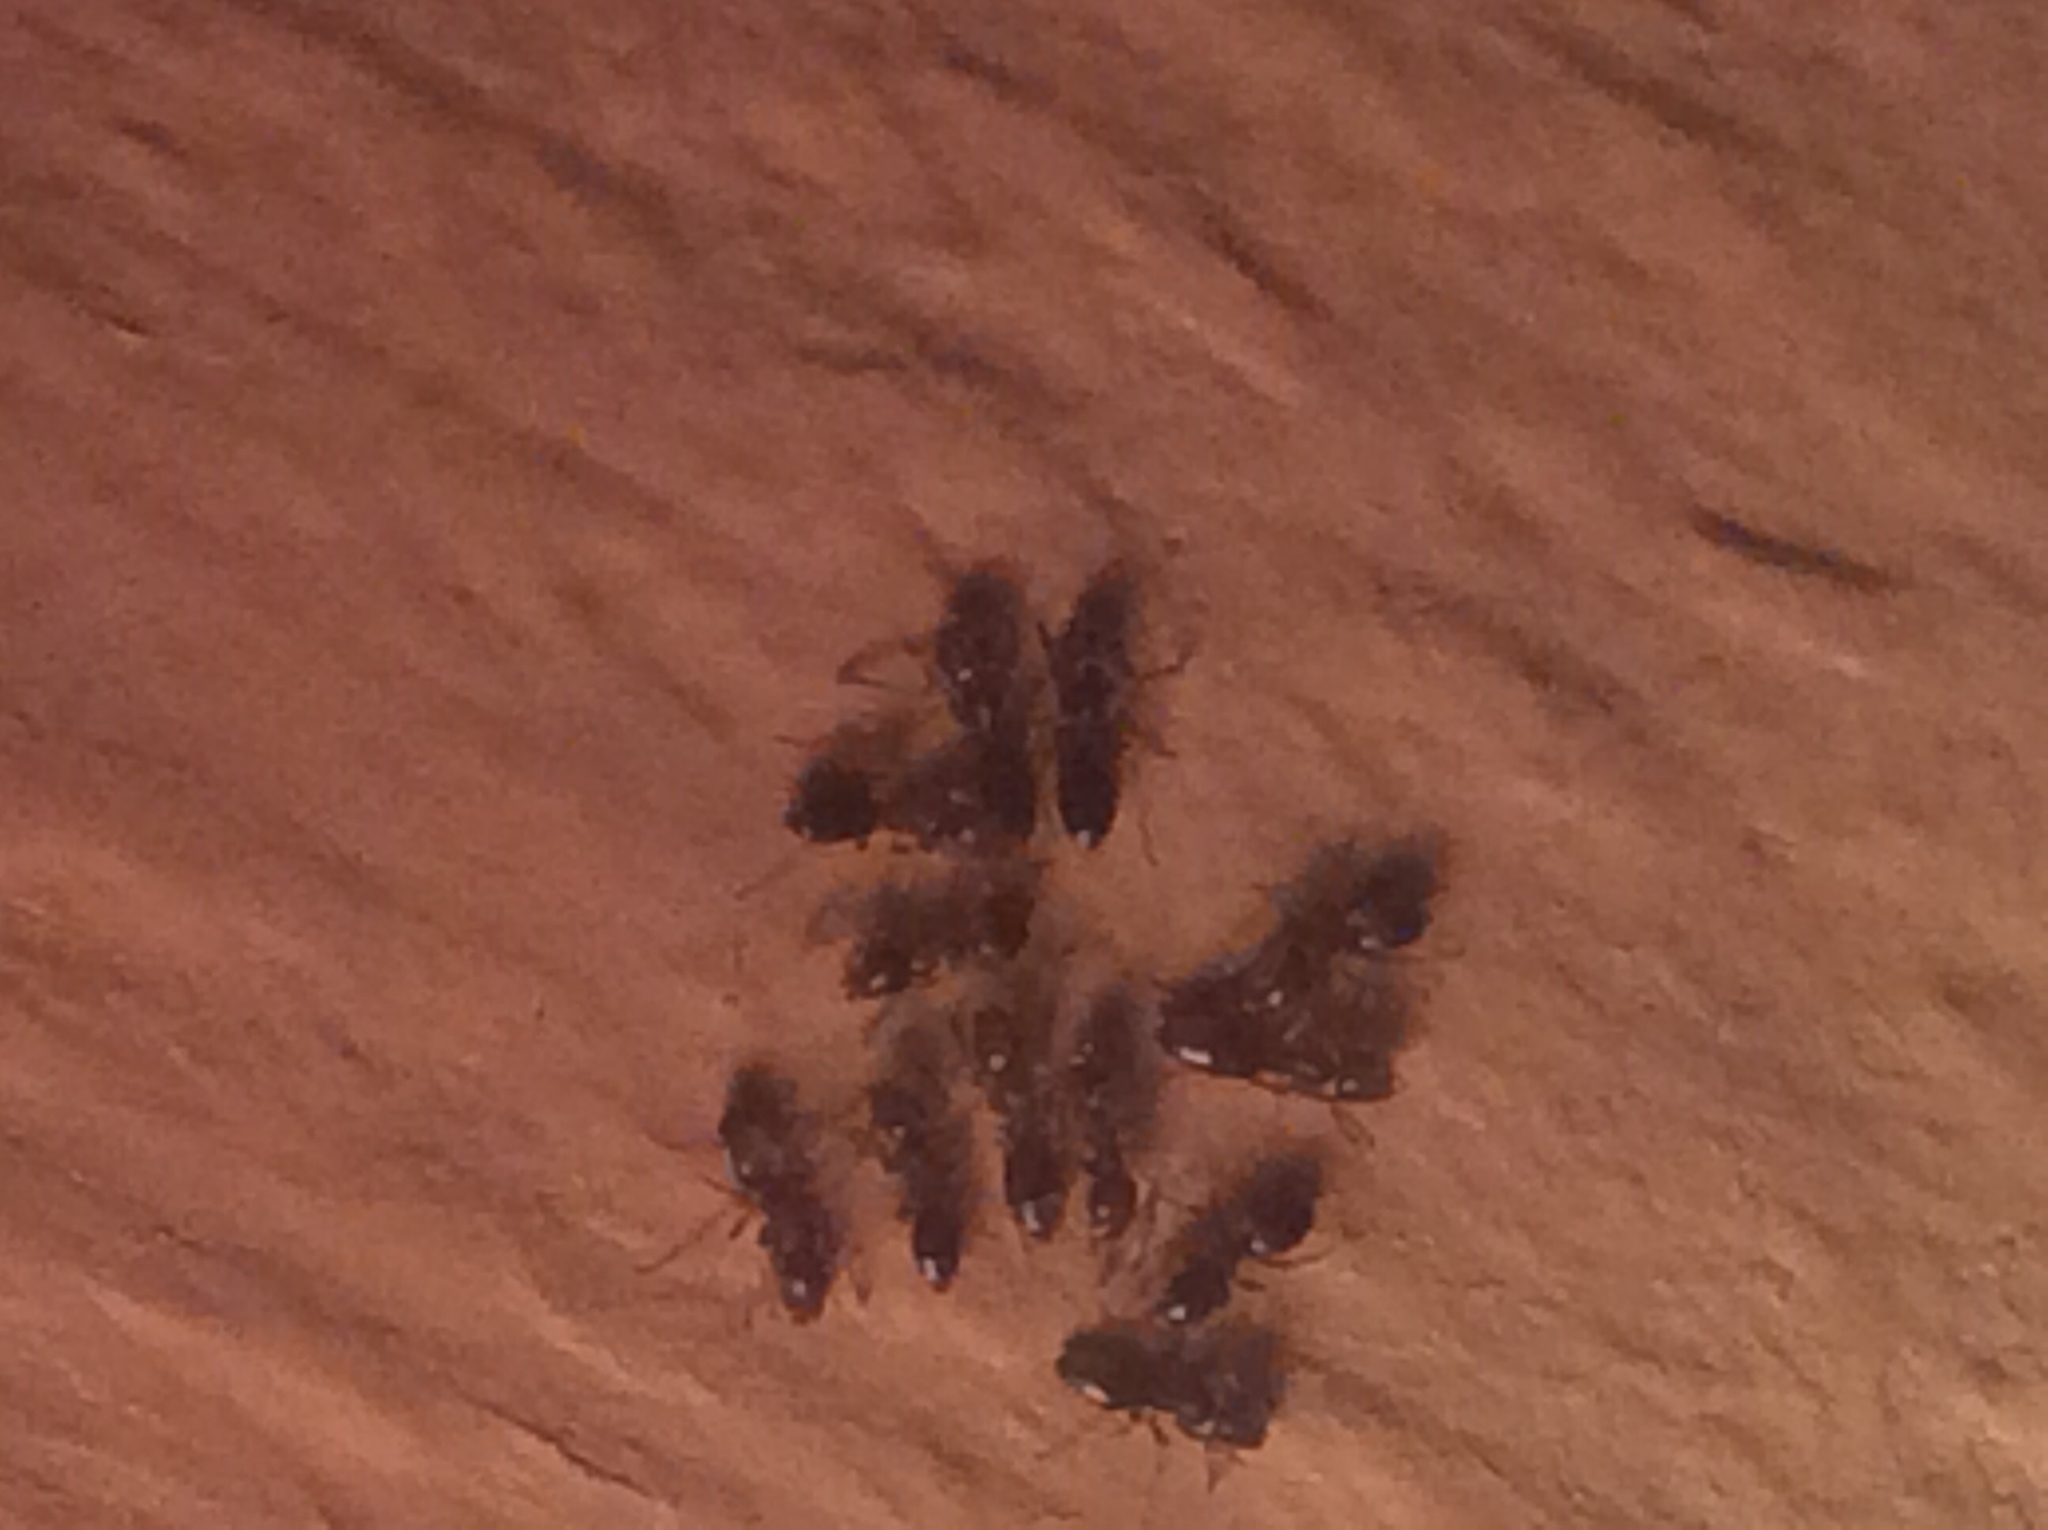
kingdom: Animalia
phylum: Arthropoda
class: Insecta
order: Hymenoptera
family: Formicidae
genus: Tapinoma
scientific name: Tapinoma sessile
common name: Odorous house ant
